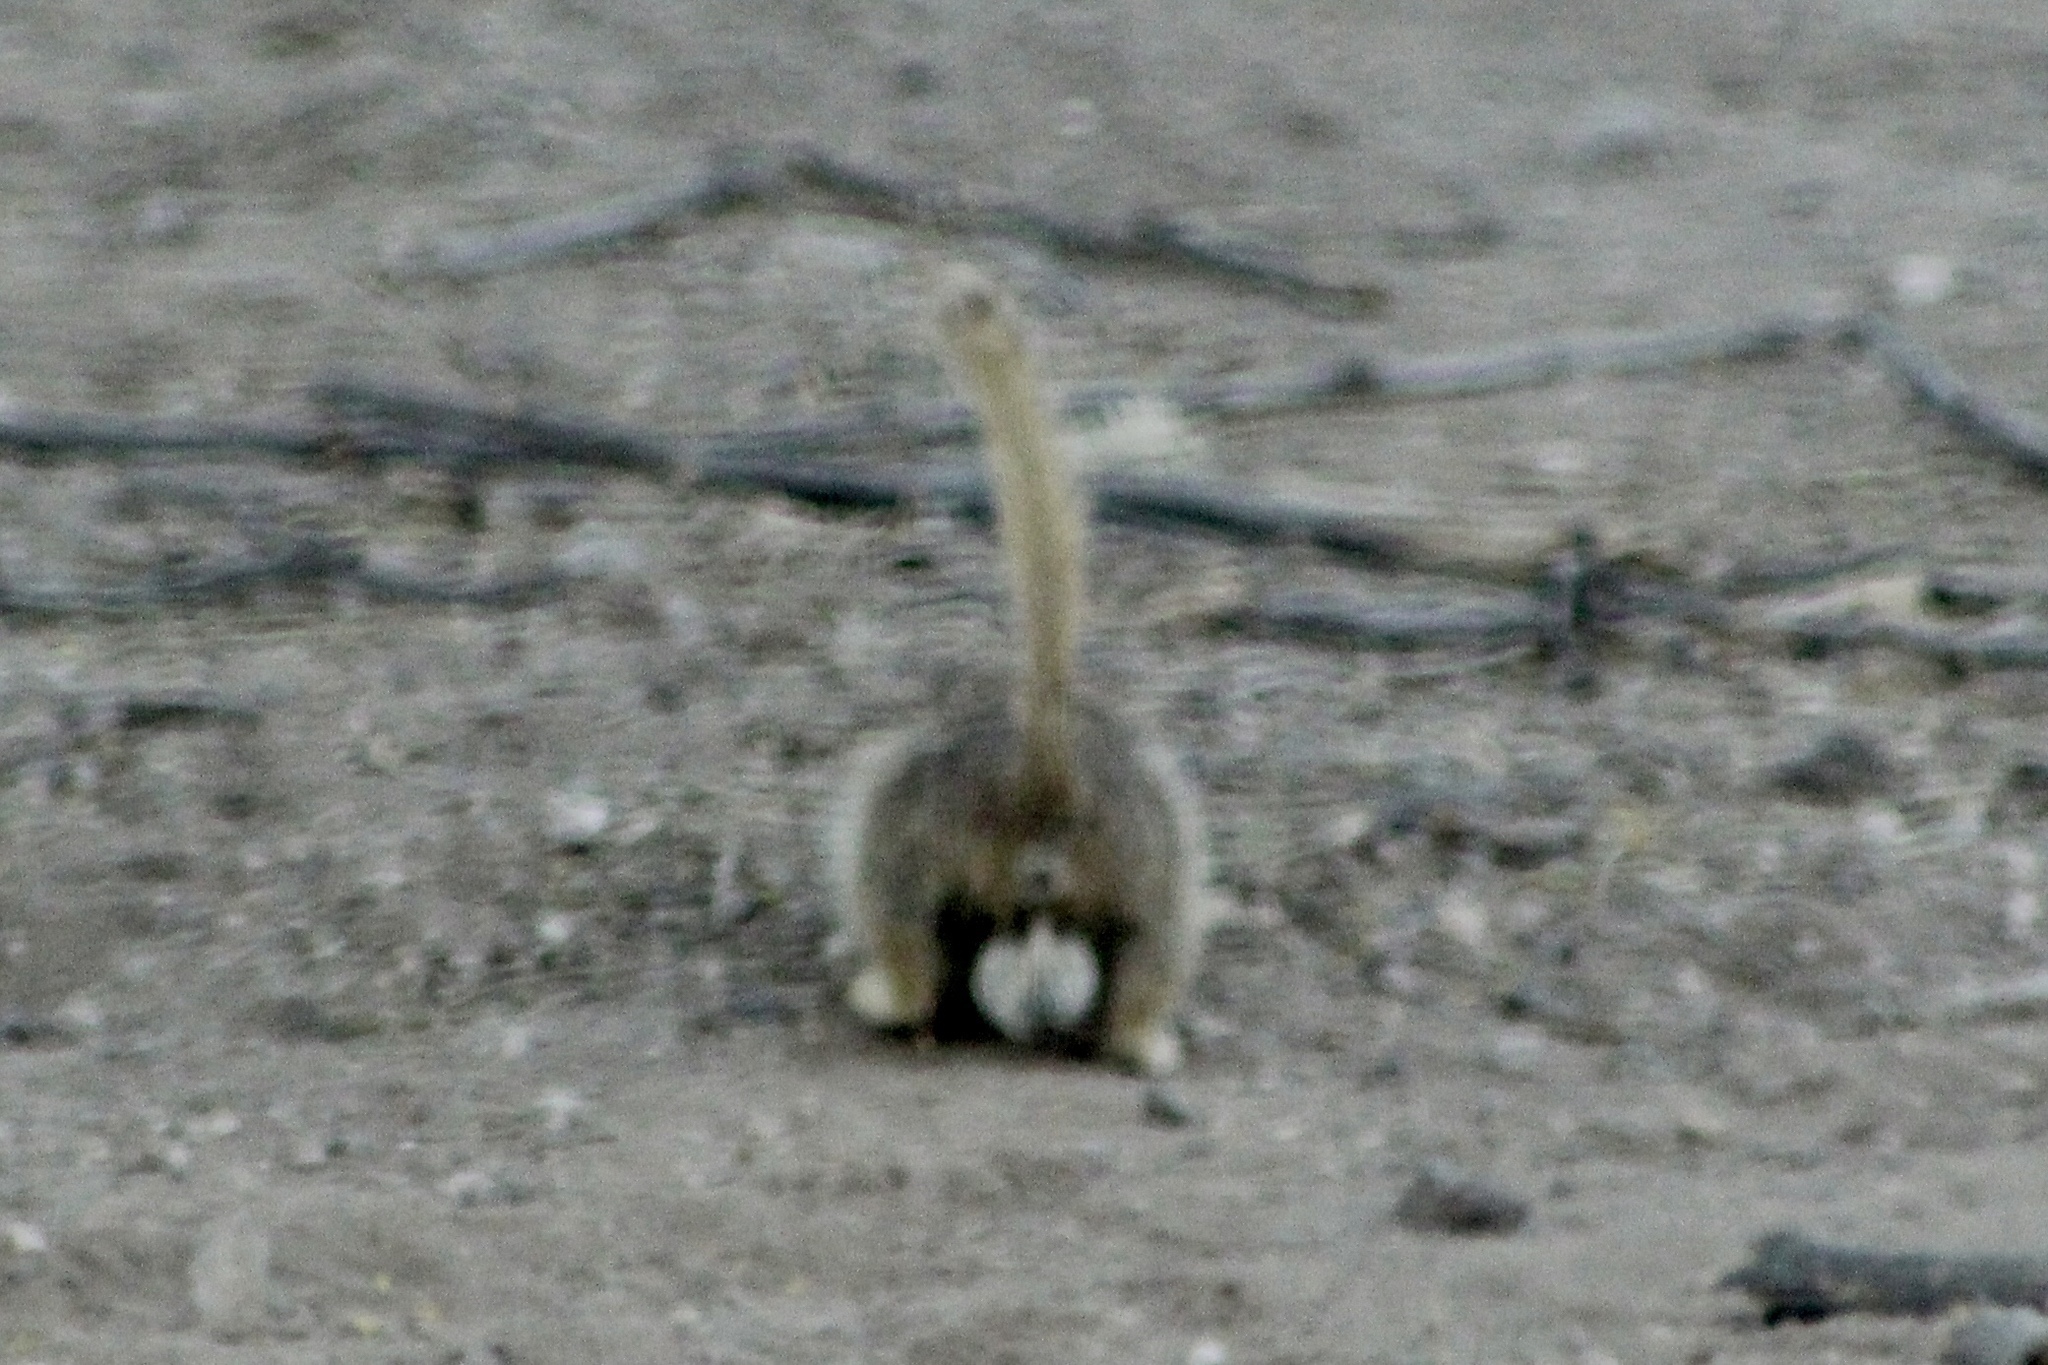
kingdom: Animalia
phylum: Chordata
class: Mammalia
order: Rodentia
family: Sciuridae
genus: Xerospermophilus
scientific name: Xerospermophilus tereticaudus
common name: Round-tailed ground squirrel
